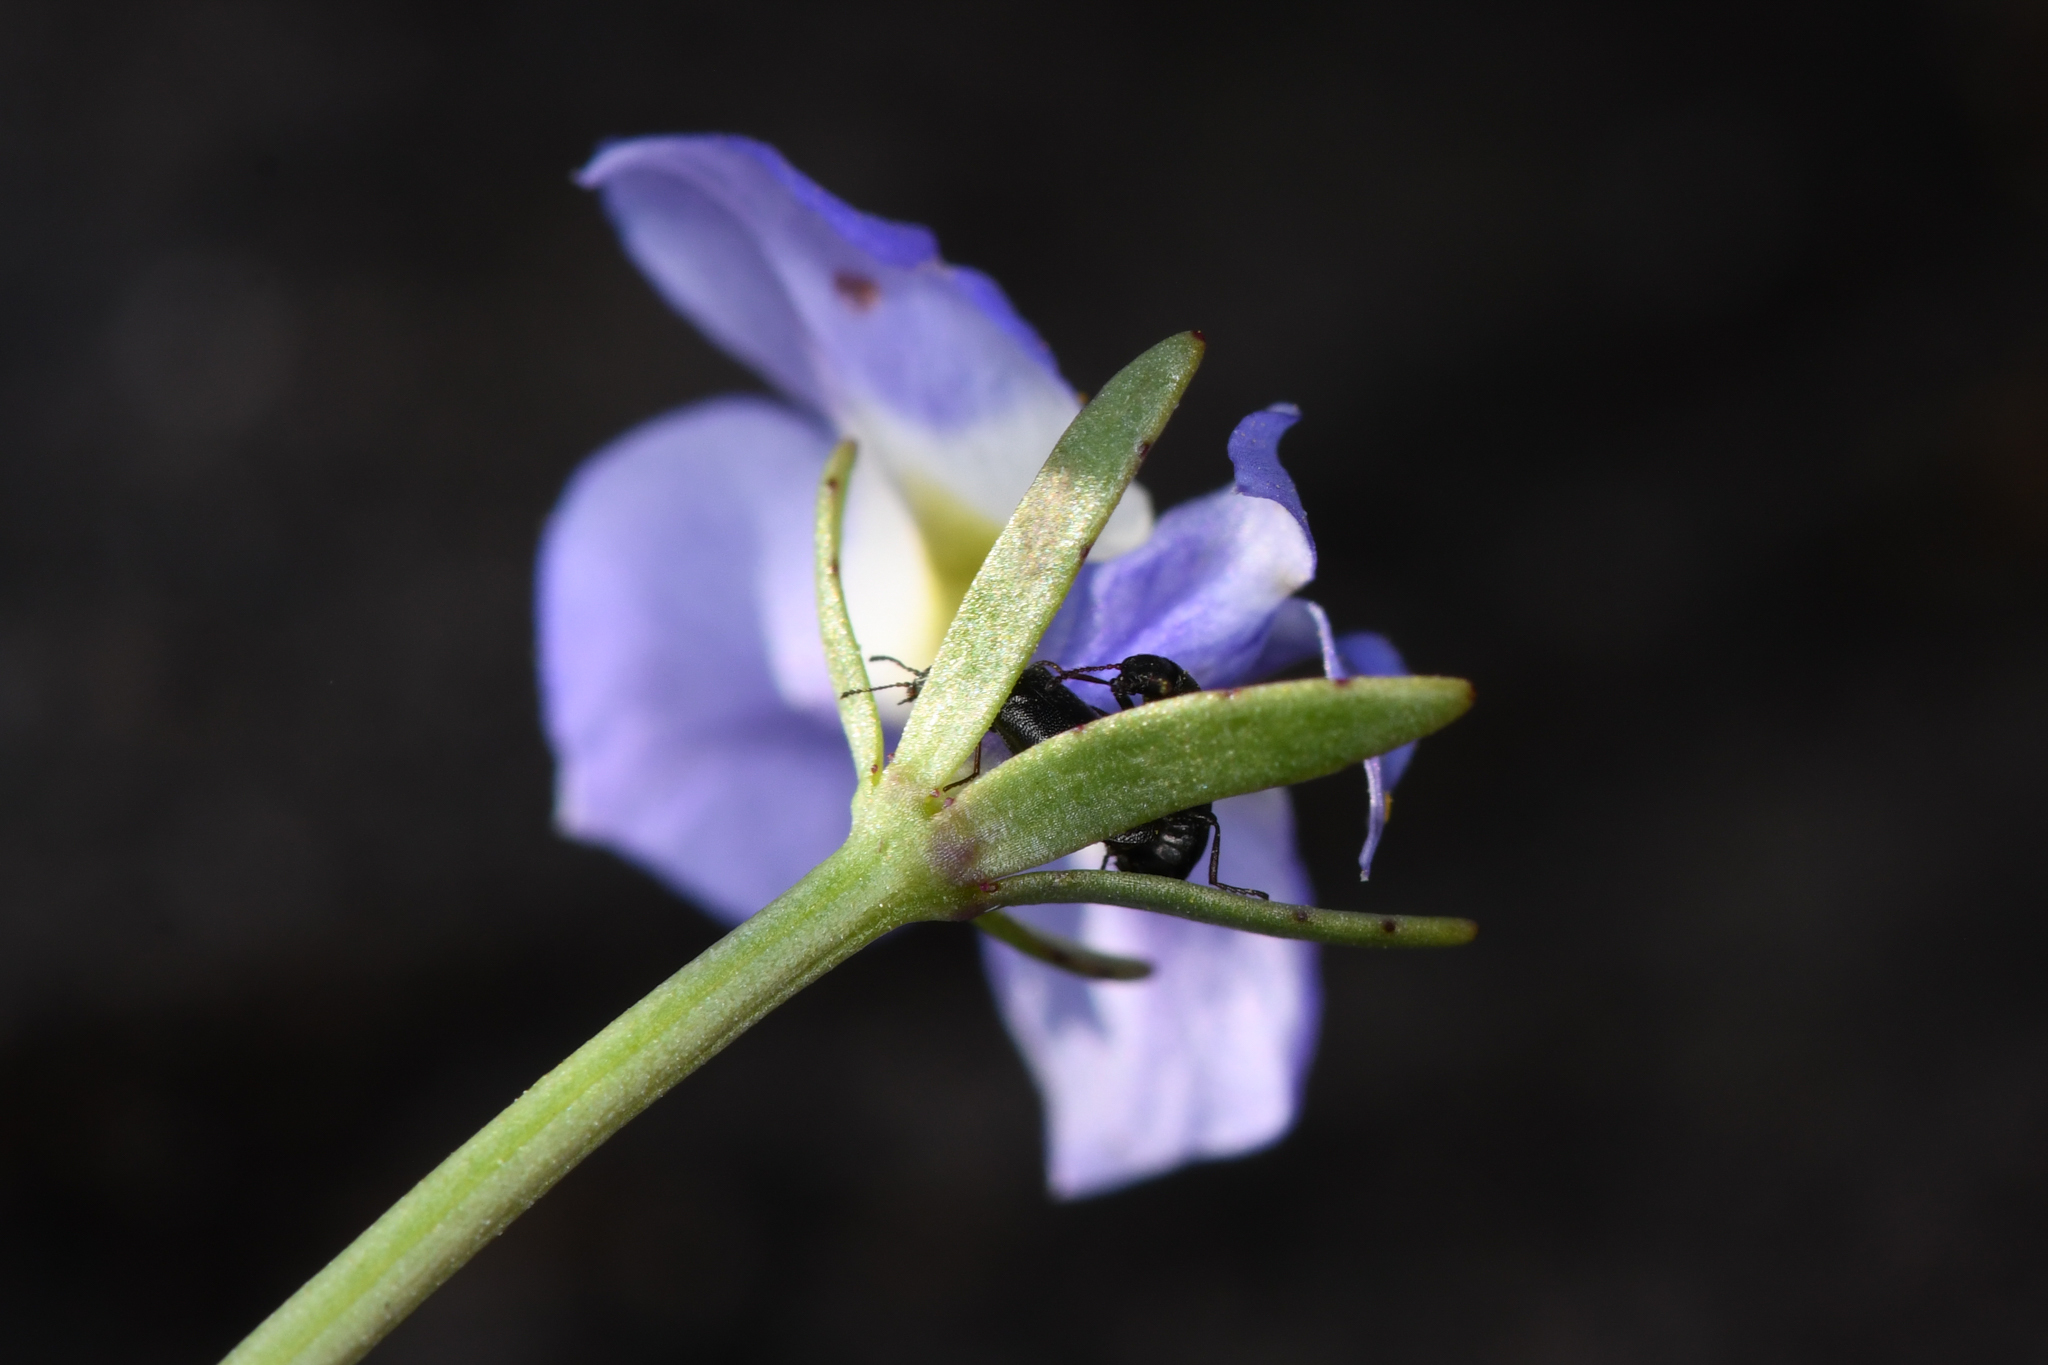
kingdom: Plantae
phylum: Tracheophyta
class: Magnoliopsida
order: Asterales
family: Campanulaceae
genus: Downingia
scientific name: Downingia cuspidata
